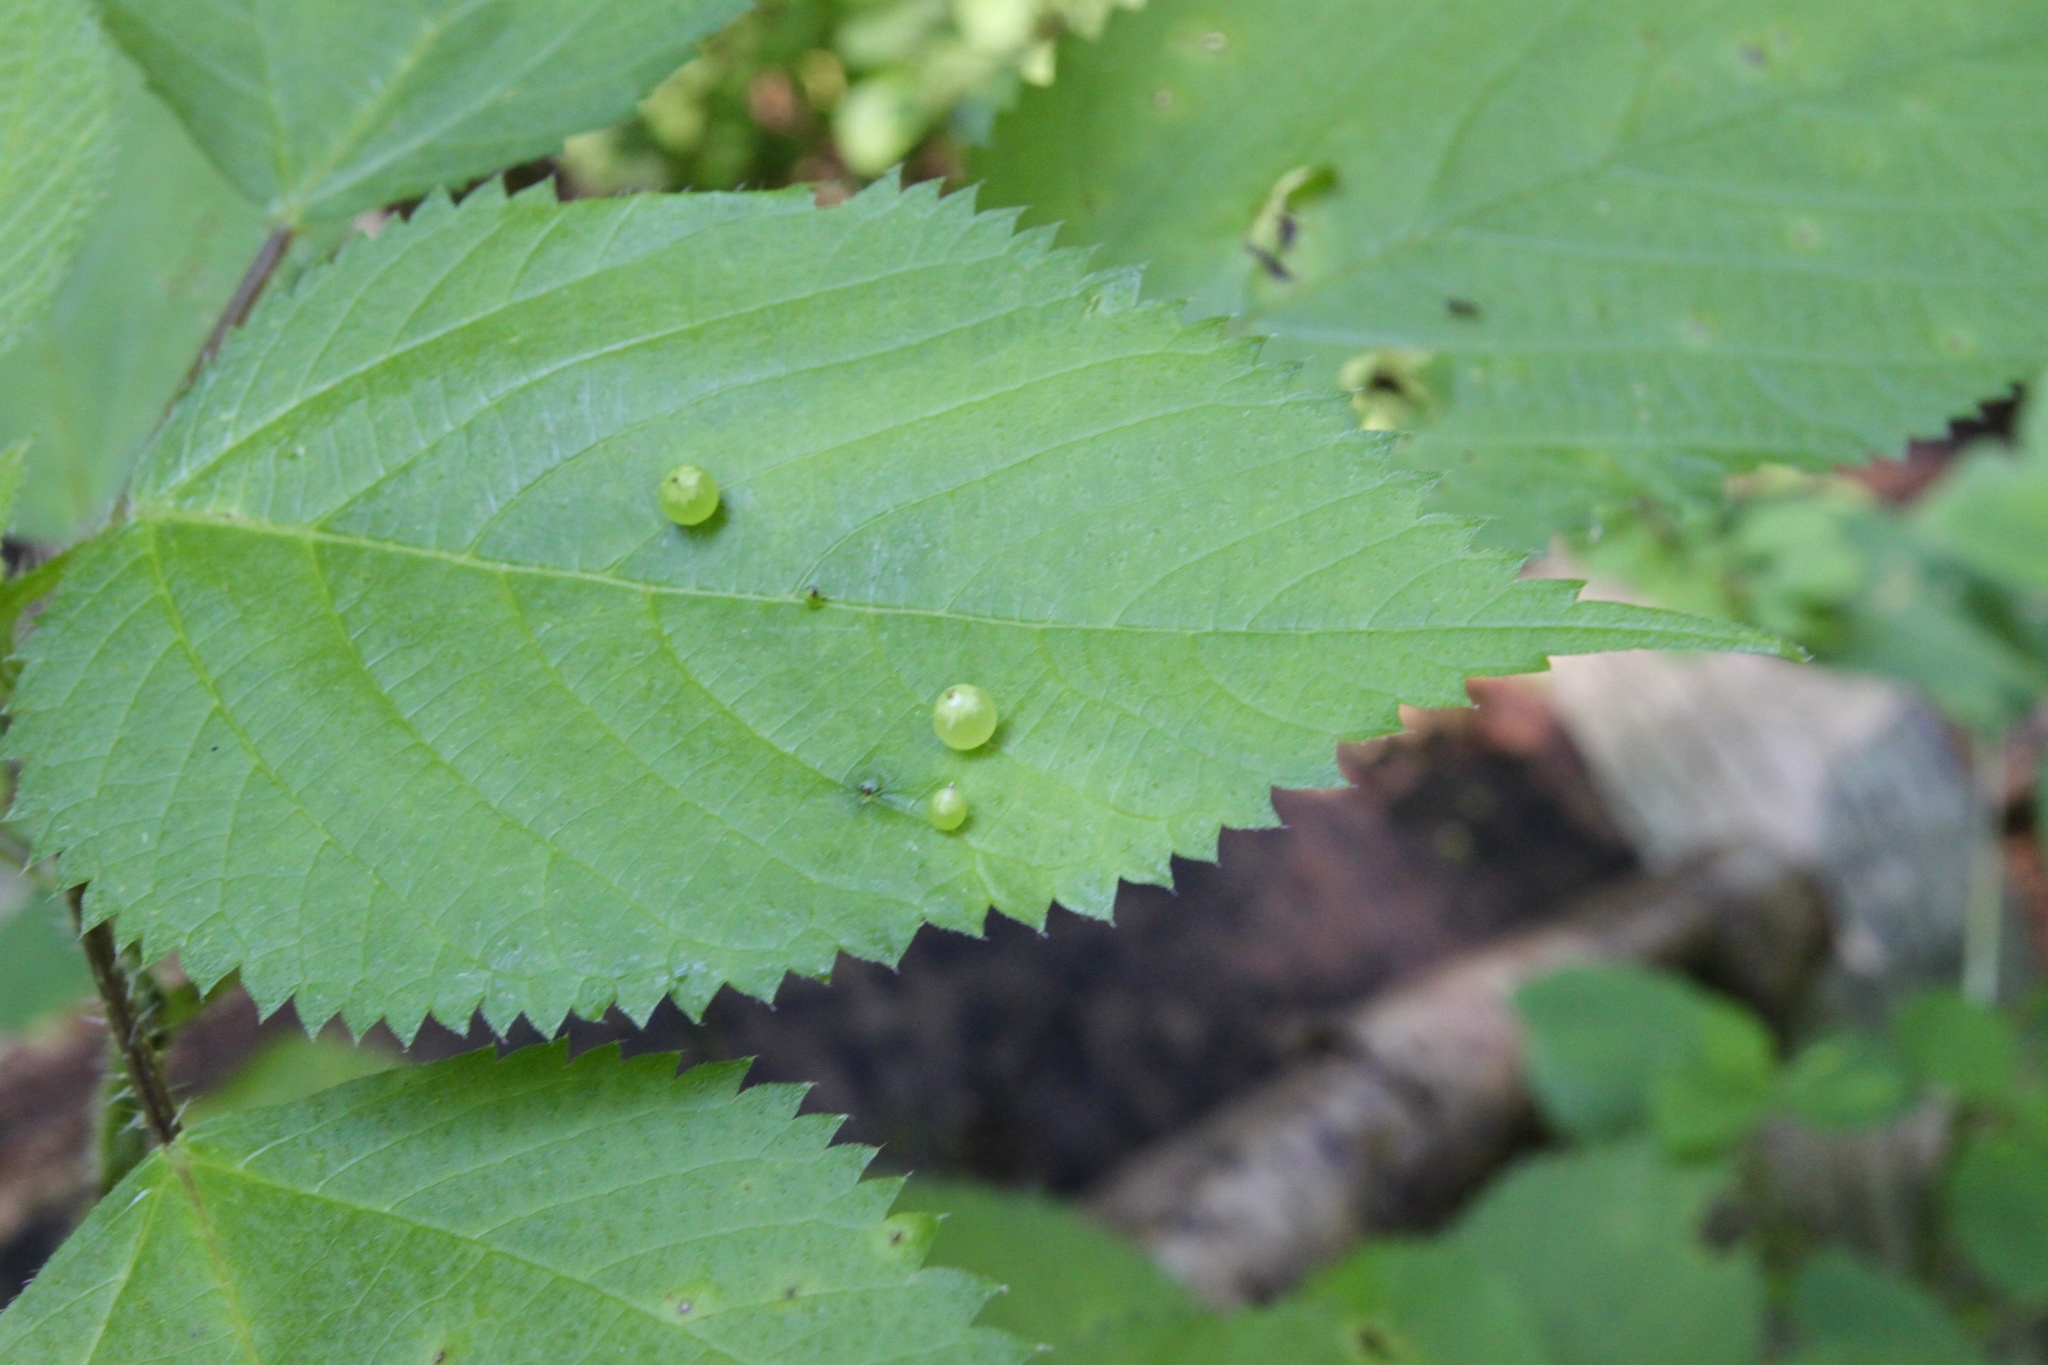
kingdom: Animalia
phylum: Arthropoda
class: Insecta
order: Diptera
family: Cecidomyiidae
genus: Dasineura
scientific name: Dasineura investita
